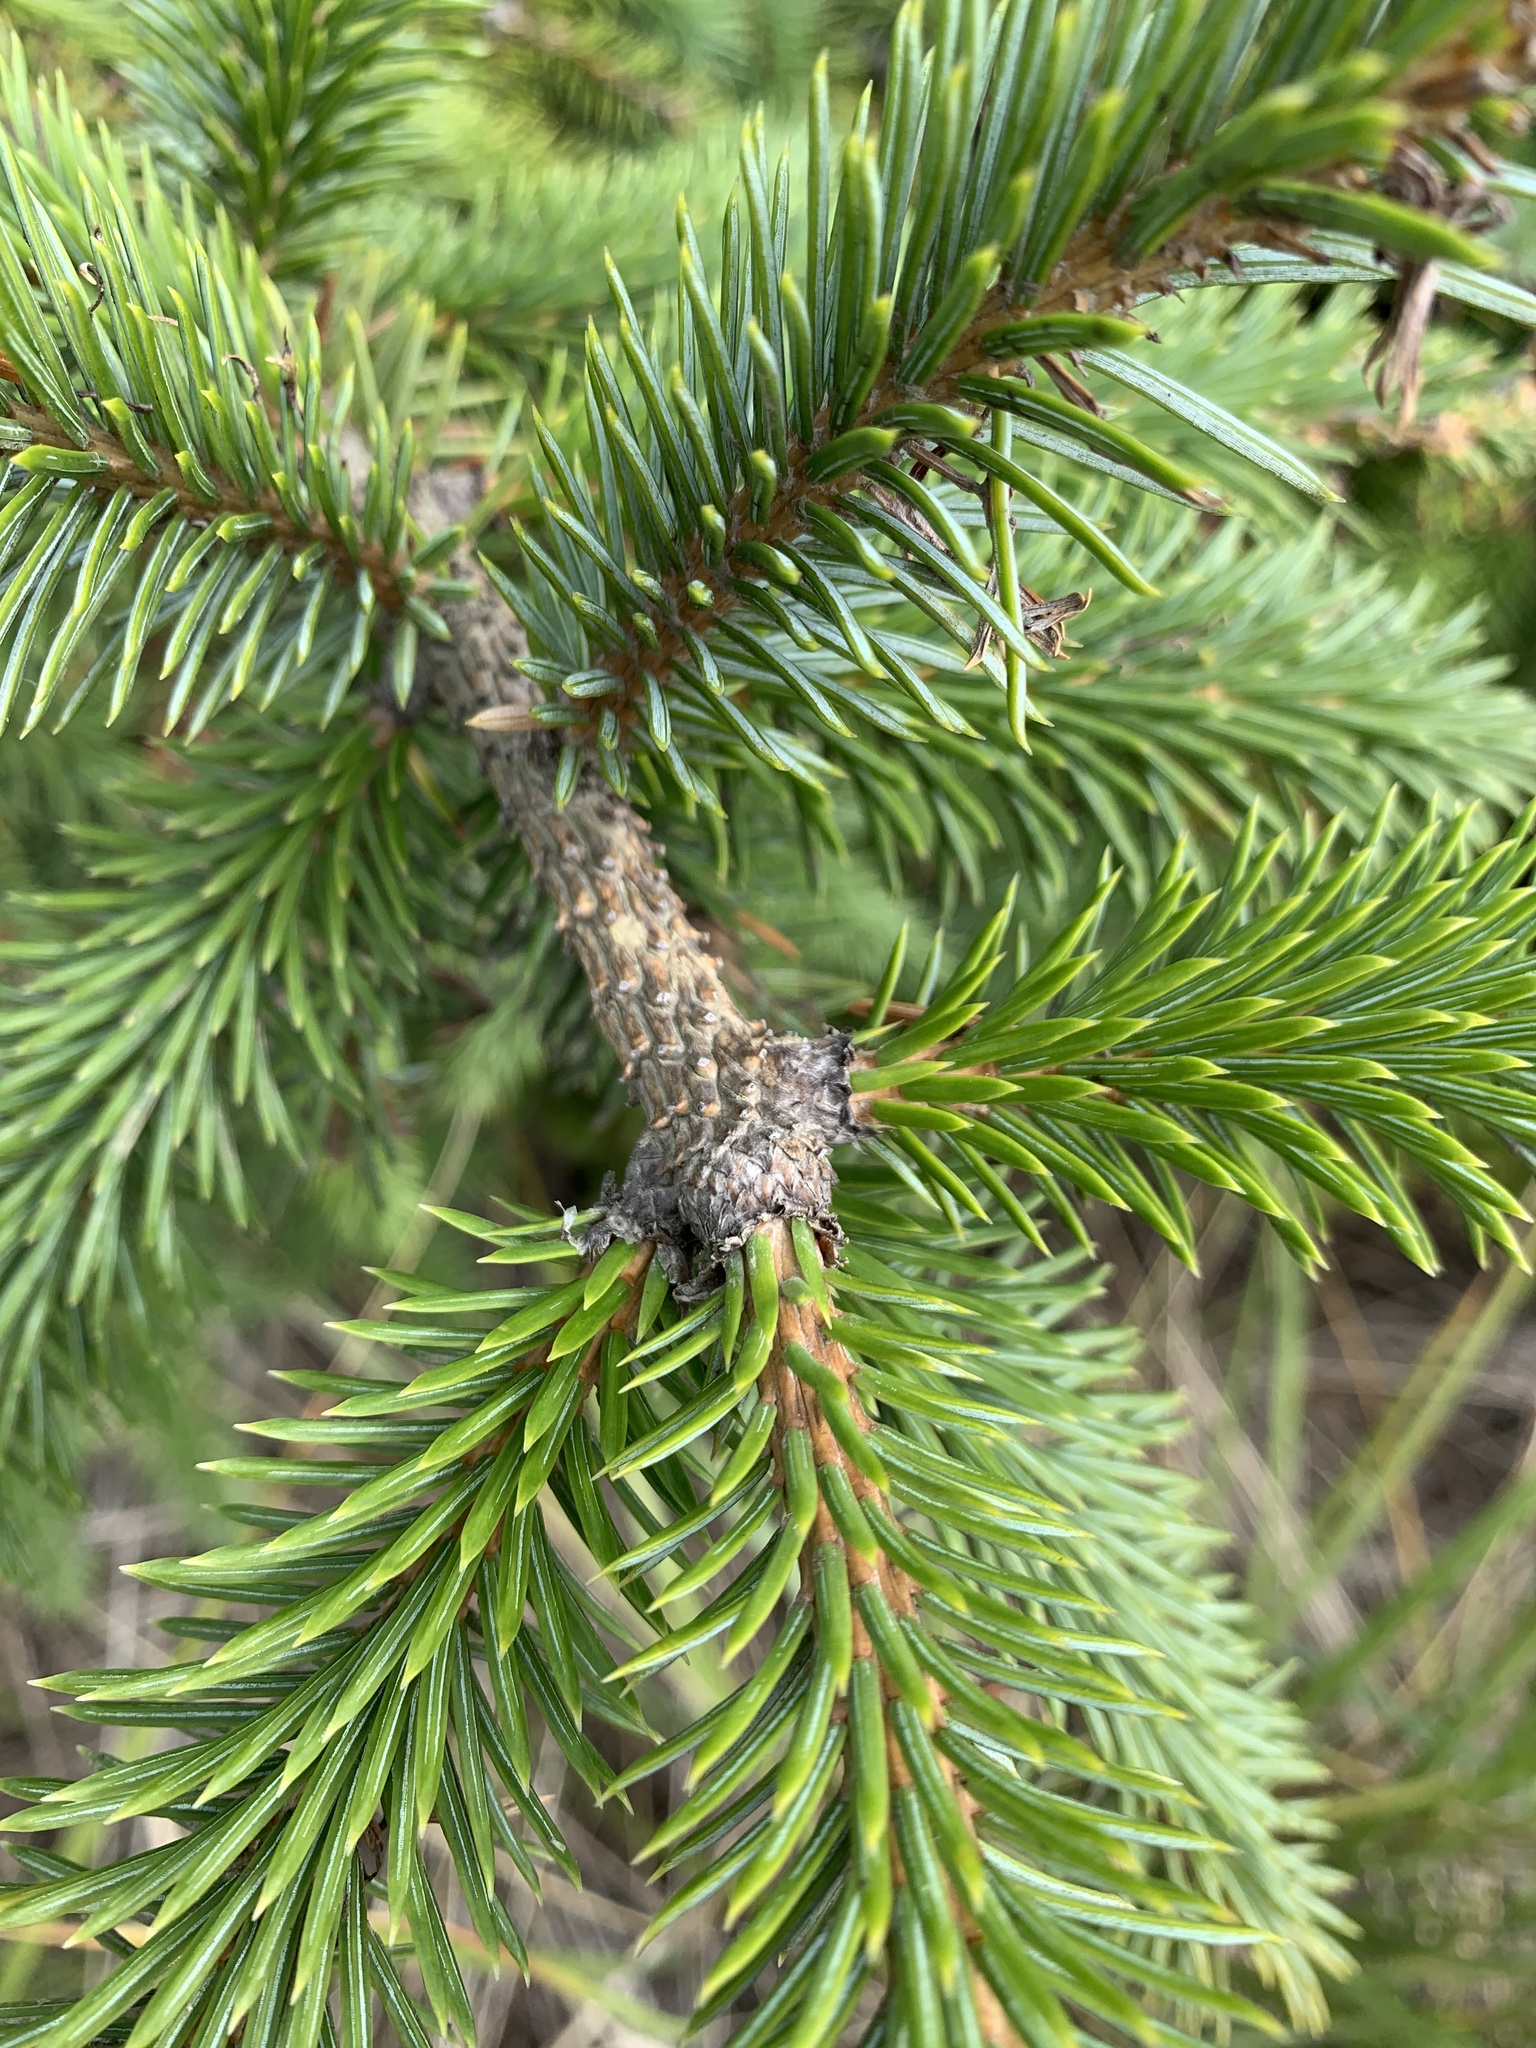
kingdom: Plantae
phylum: Tracheophyta
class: Pinopsida
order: Pinales
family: Pinaceae
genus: Picea
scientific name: Picea sitchensis
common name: Sitka spruce
